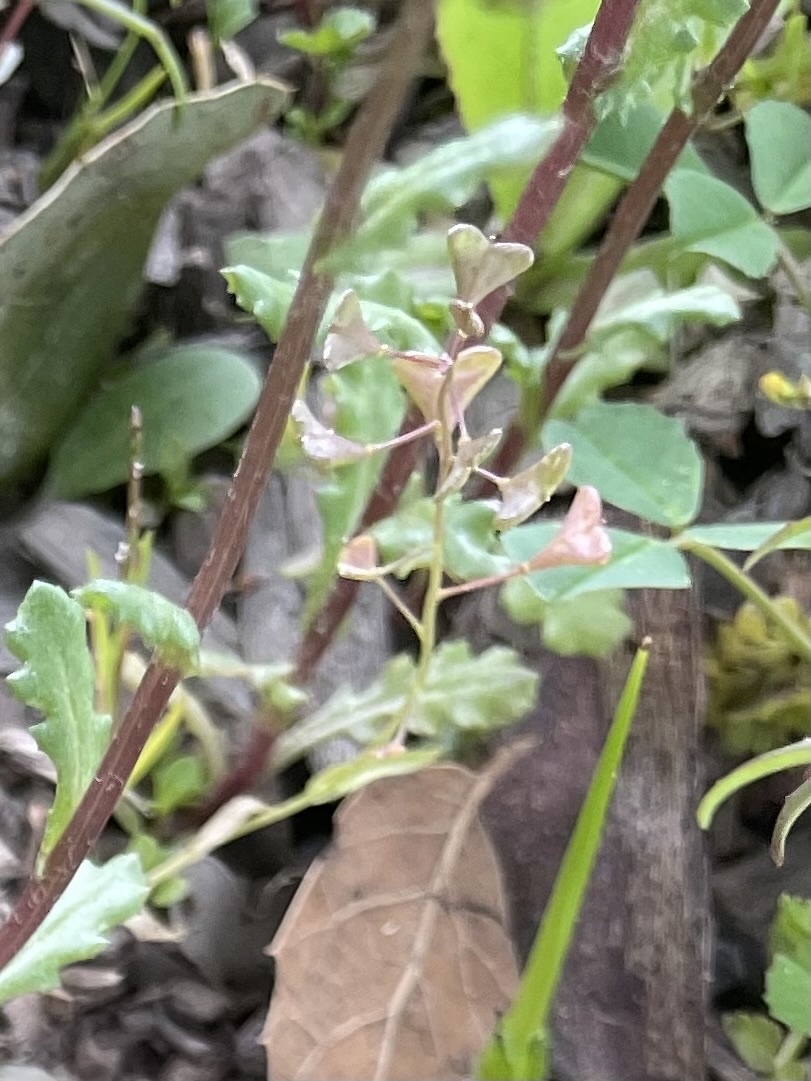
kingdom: Plantae
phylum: Tracheophyta
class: Magnoliopsida
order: Brassicales
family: Brassicaceae
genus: Capsella
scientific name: Capsella bursa-pastoris
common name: Shepherd's purse
